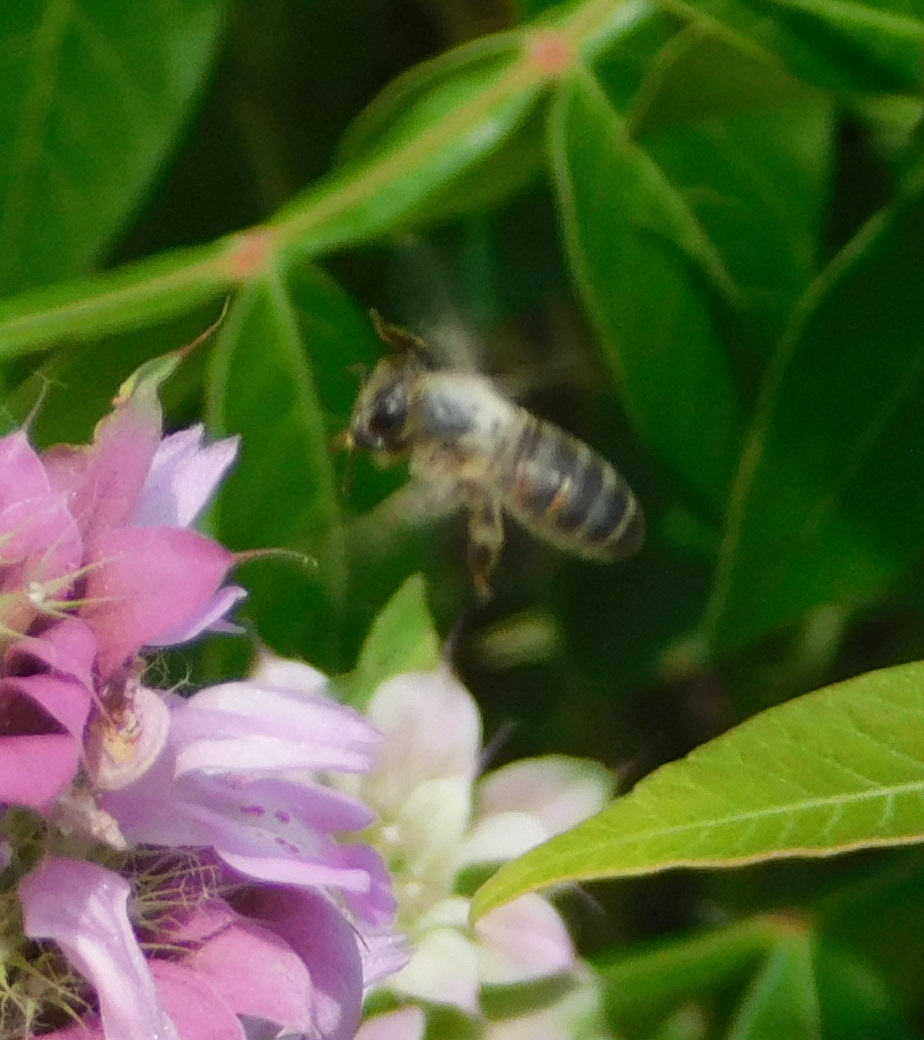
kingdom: Animalia
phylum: Arthropoda
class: Insecta
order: Hymenoptera
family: Apidae
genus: Apis
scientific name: Apis mellifera
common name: Honey bee
